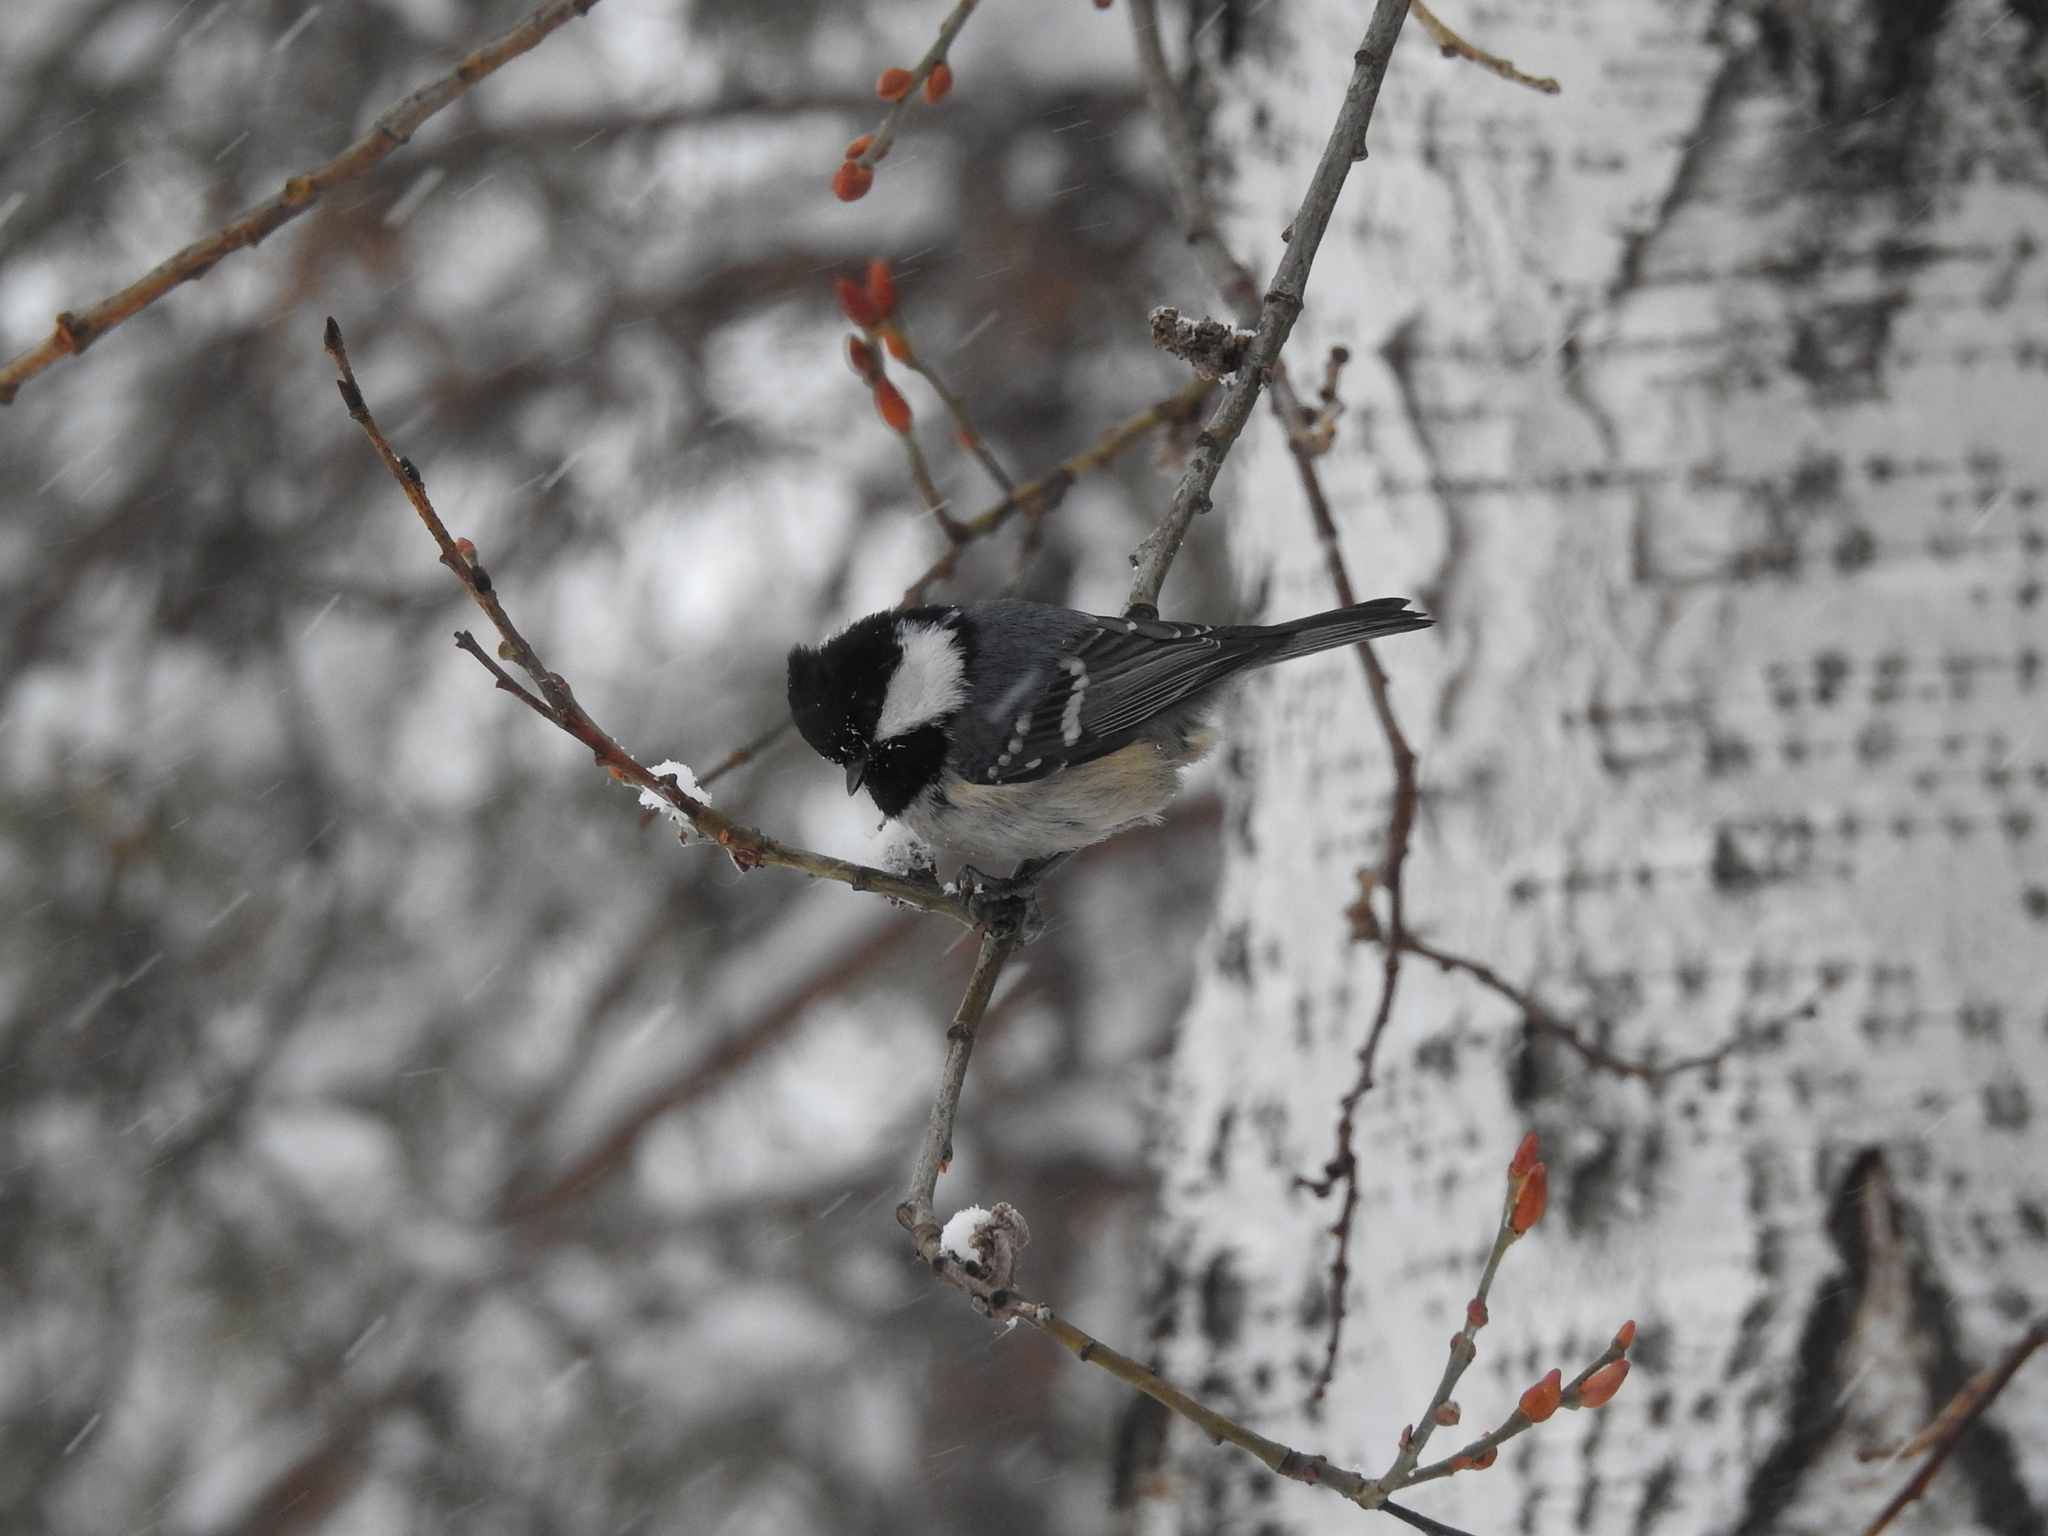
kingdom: Animalia
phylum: Chordata
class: Aves
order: Passeriformes
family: Paridae
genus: Periparus
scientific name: Periparus ater
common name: Coal tit
